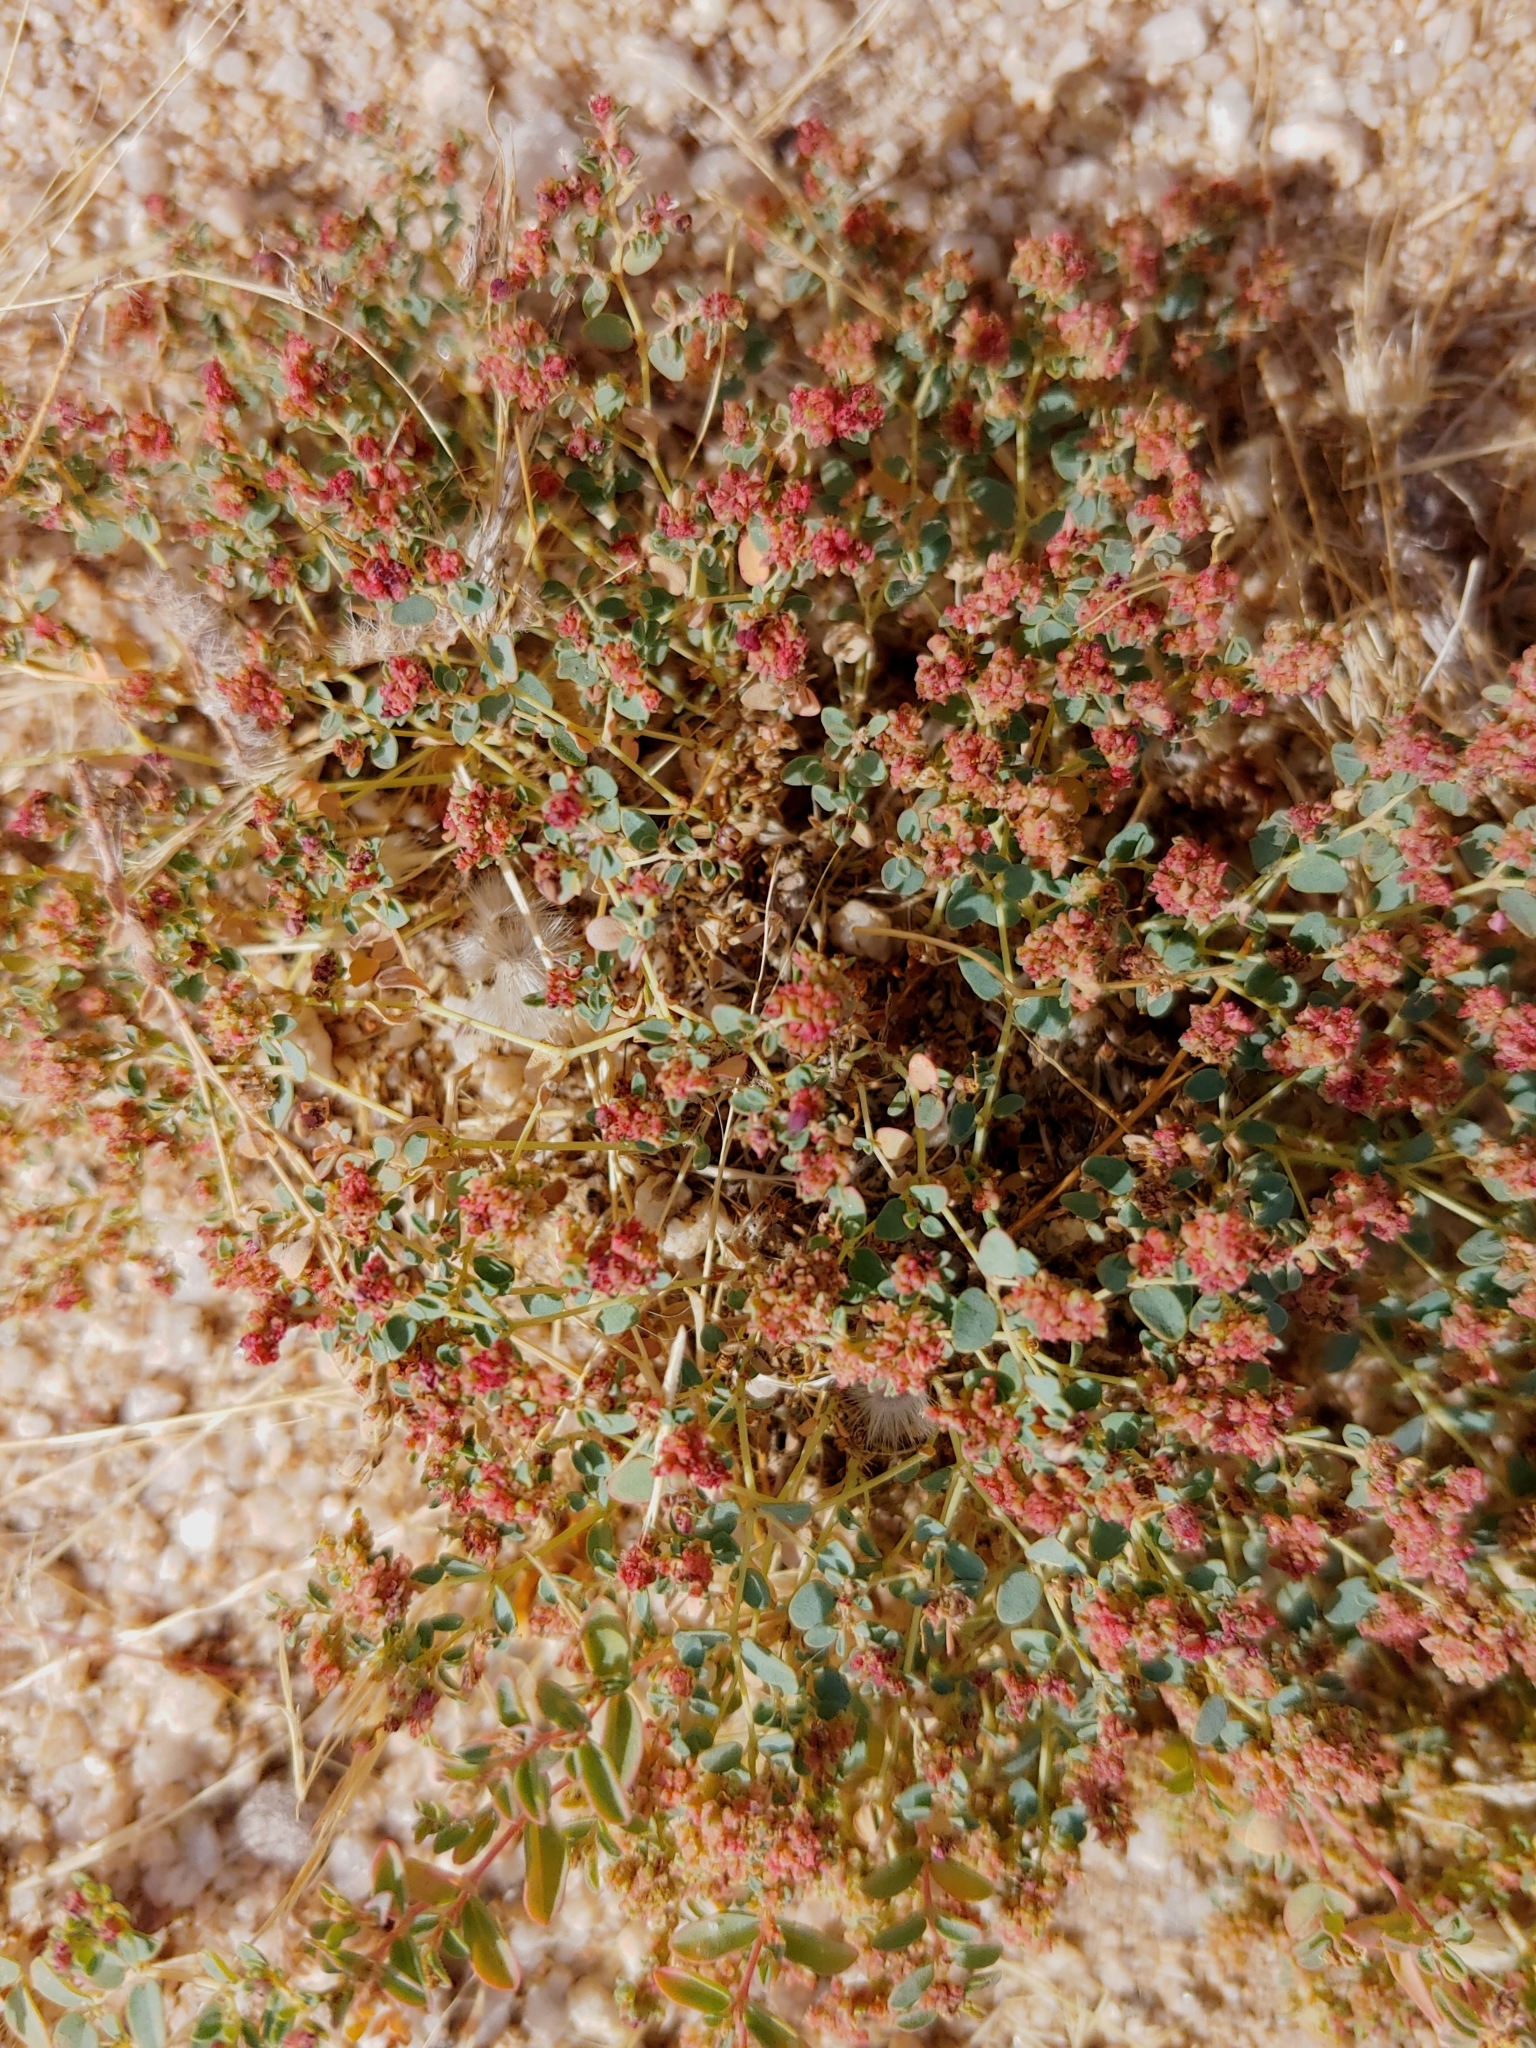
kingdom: Plantae
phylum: Tracheophyta
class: Magnoliopsida
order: Malpighiales
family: Euphorbiaceae
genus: Euphorbia
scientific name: Euphorbia polycarpa
